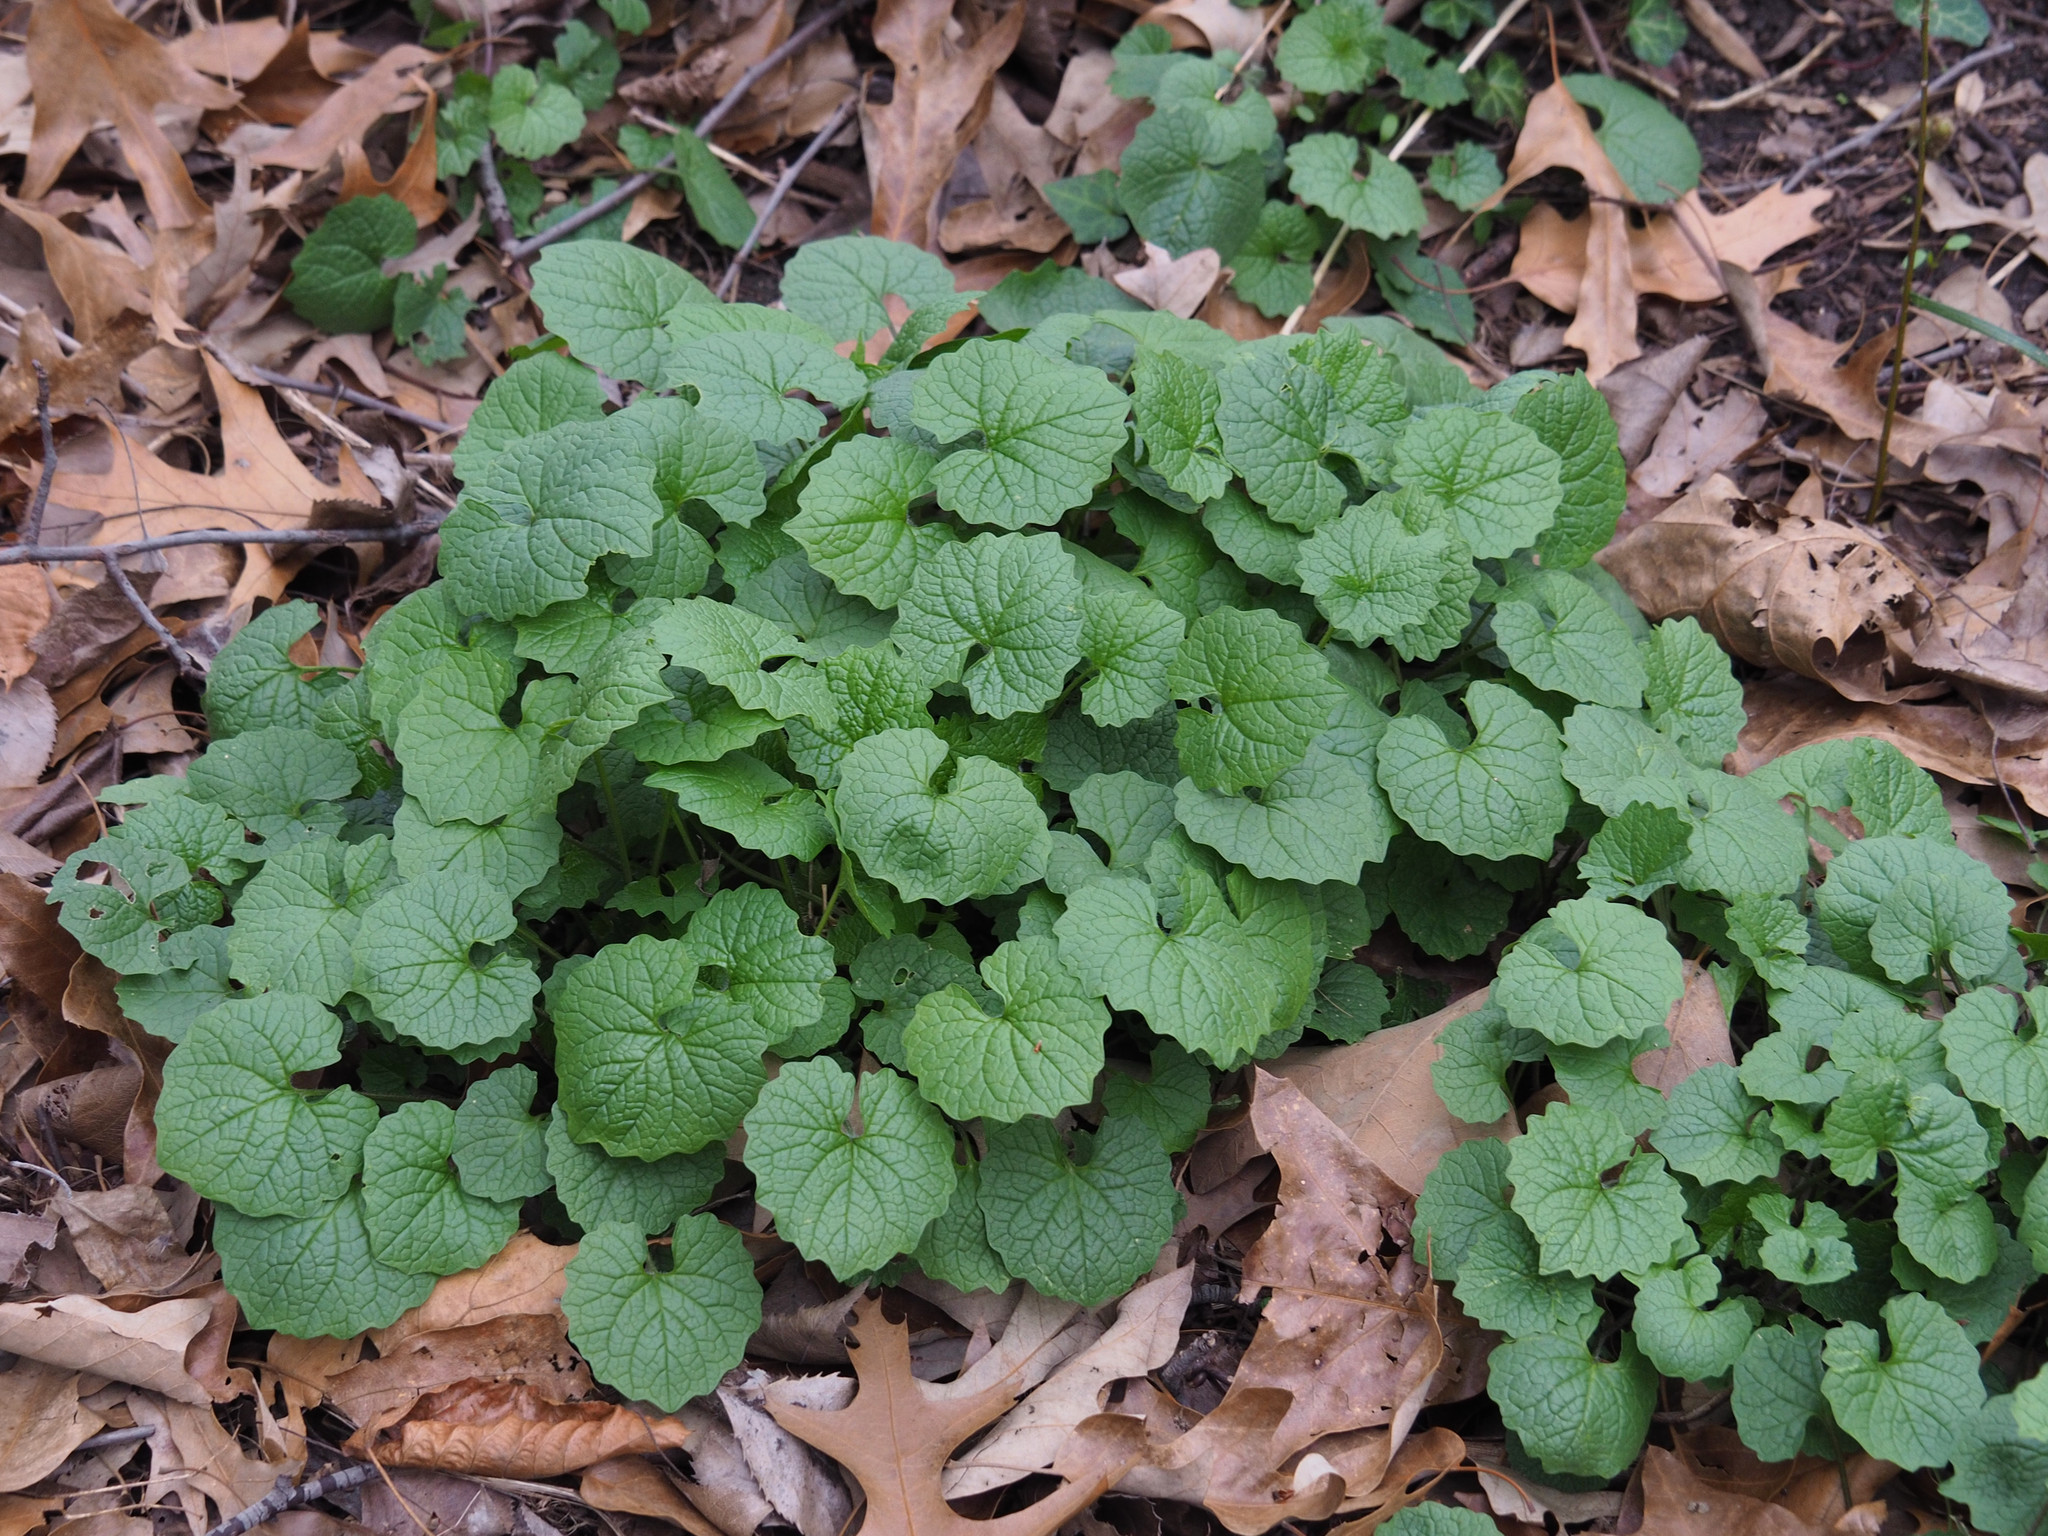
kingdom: Plantae
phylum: Tracheophyta
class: Magnoliopsida
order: Brassicales
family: Brassicaceae
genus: Alliaria
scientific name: Alliaria petiolata
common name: Garlic mustard
